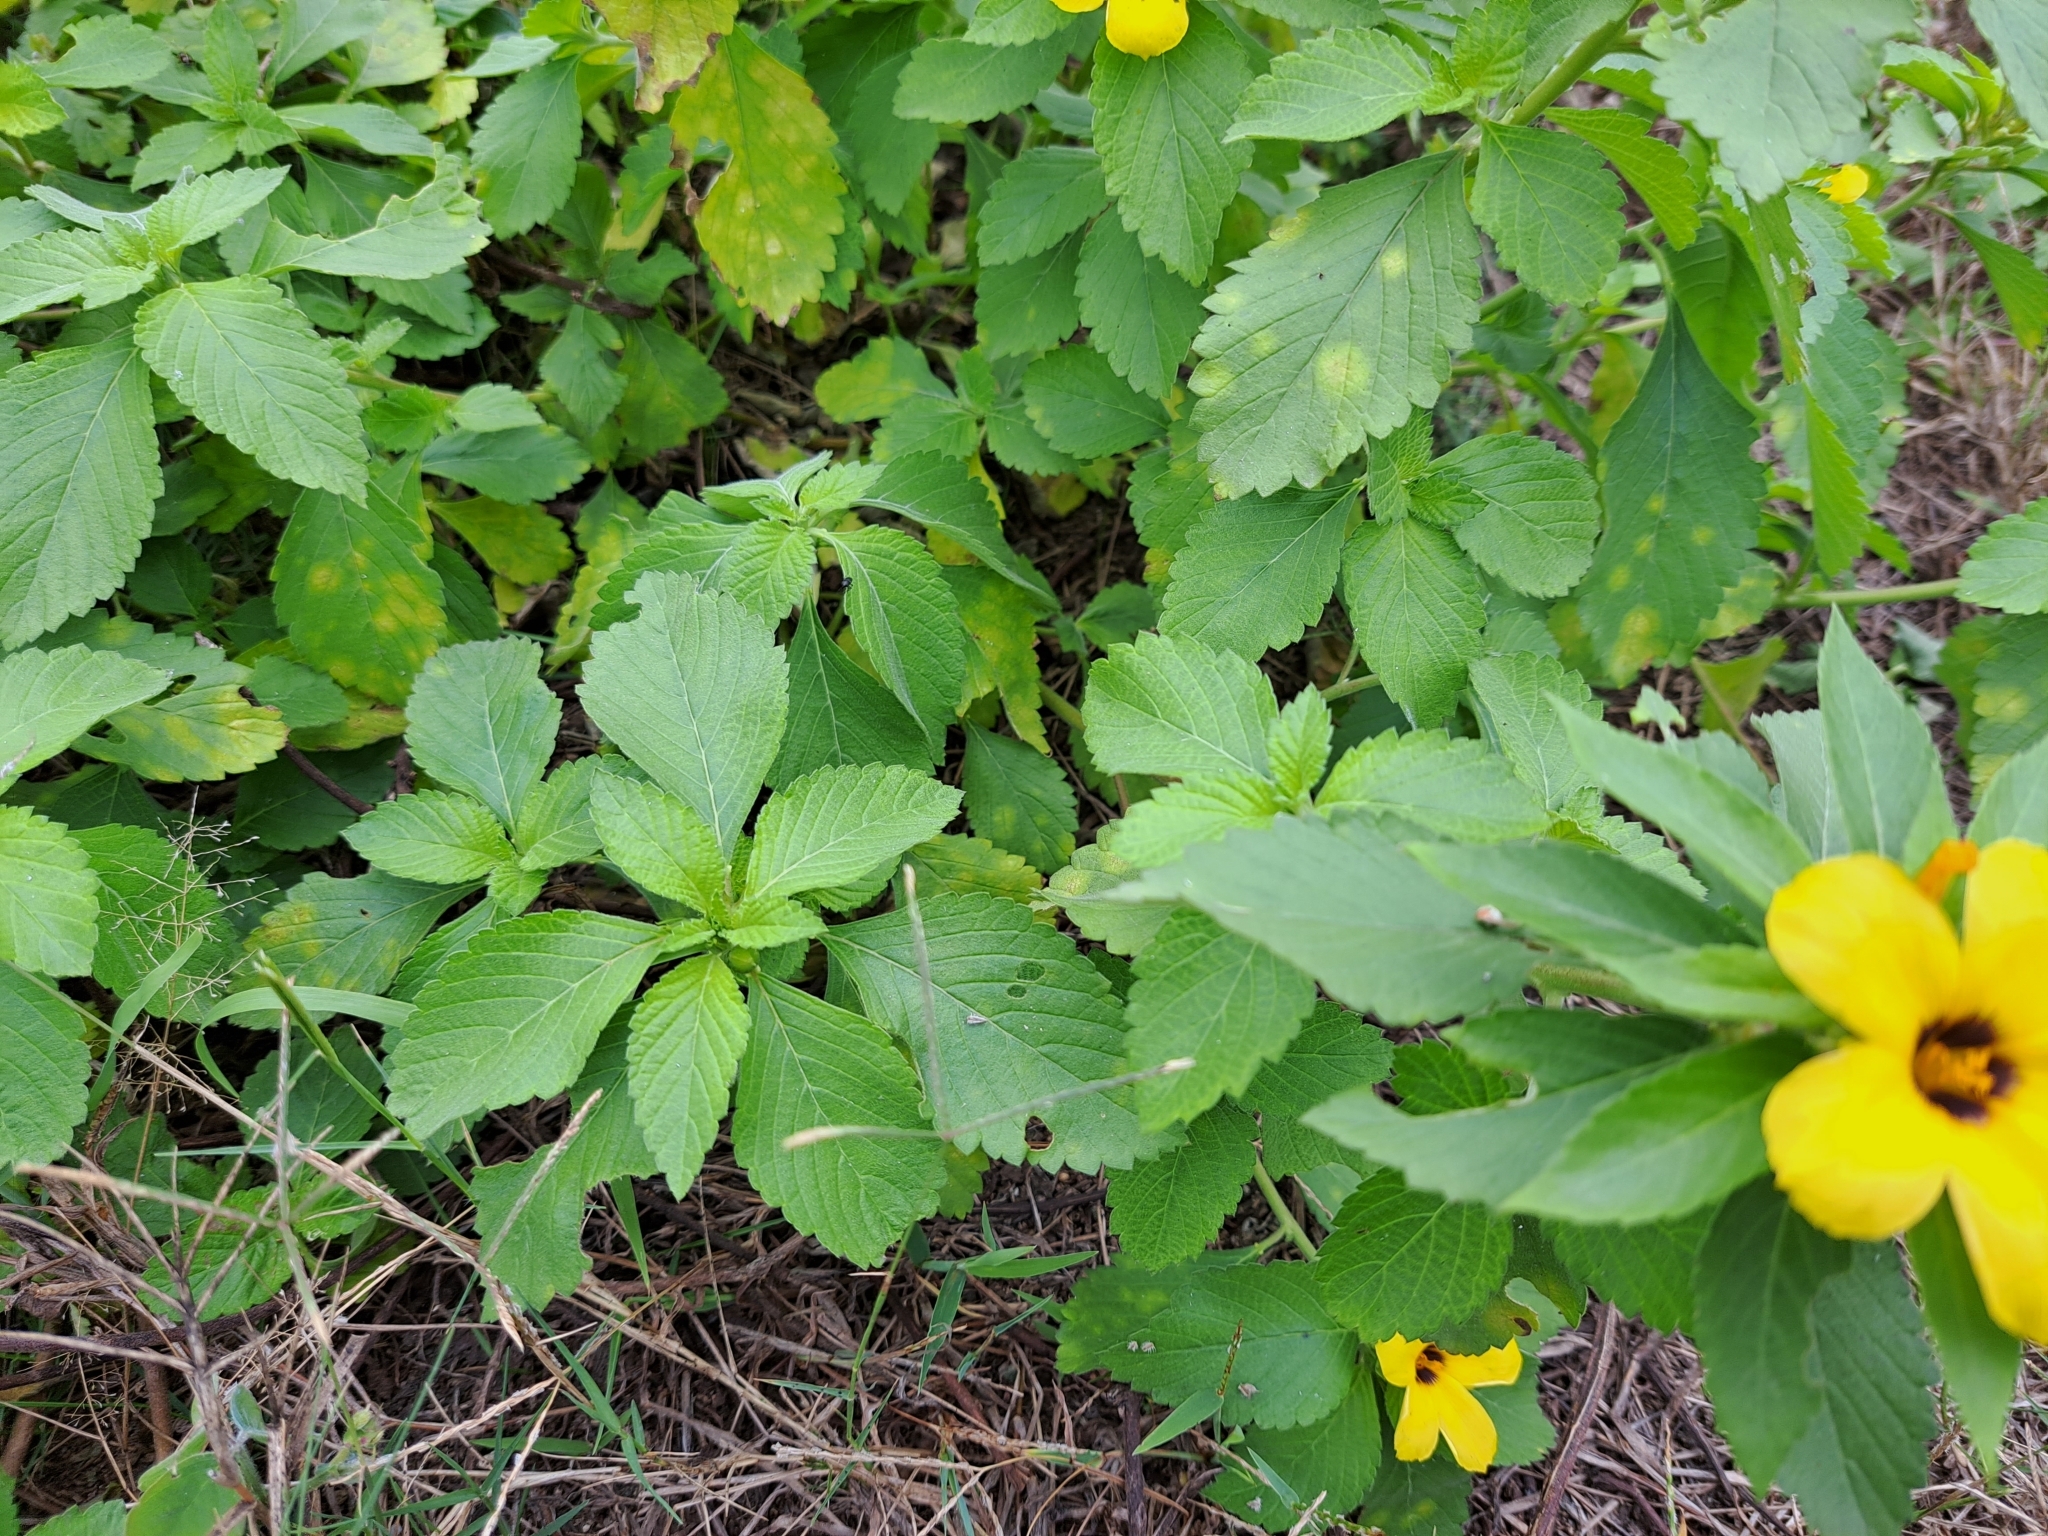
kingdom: Plantae
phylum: Tracheophyta
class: Magnoliopsida
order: Malpighiales
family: Turneraceae
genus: Turnera
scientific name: Turnera subulata
